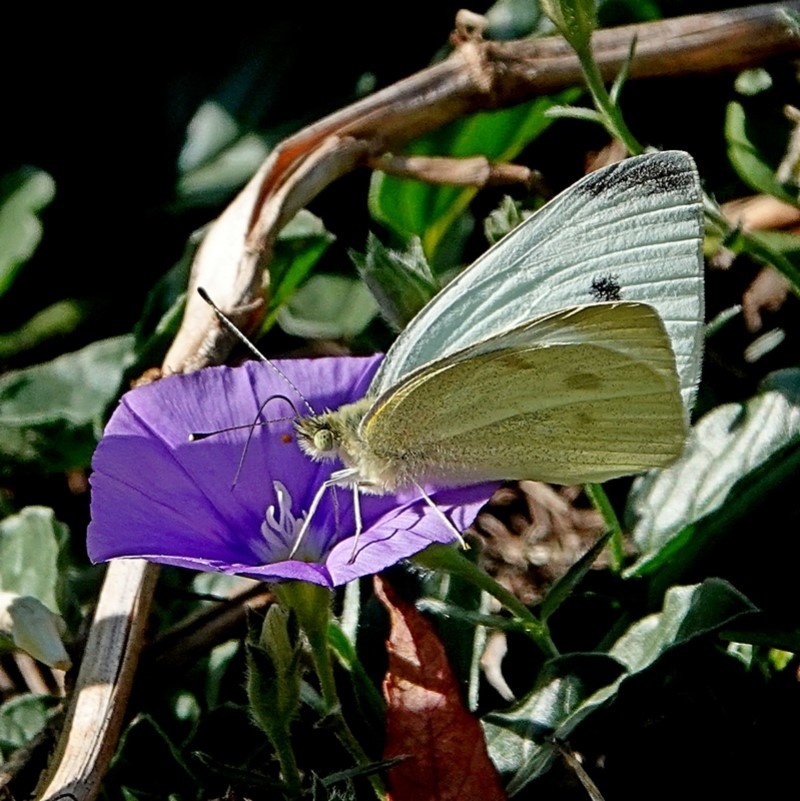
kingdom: Animalia
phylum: Arthropoda
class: Insecta
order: Lepidoptera
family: Pieridae
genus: Pieris
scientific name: Pieris rapae
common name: Small white
